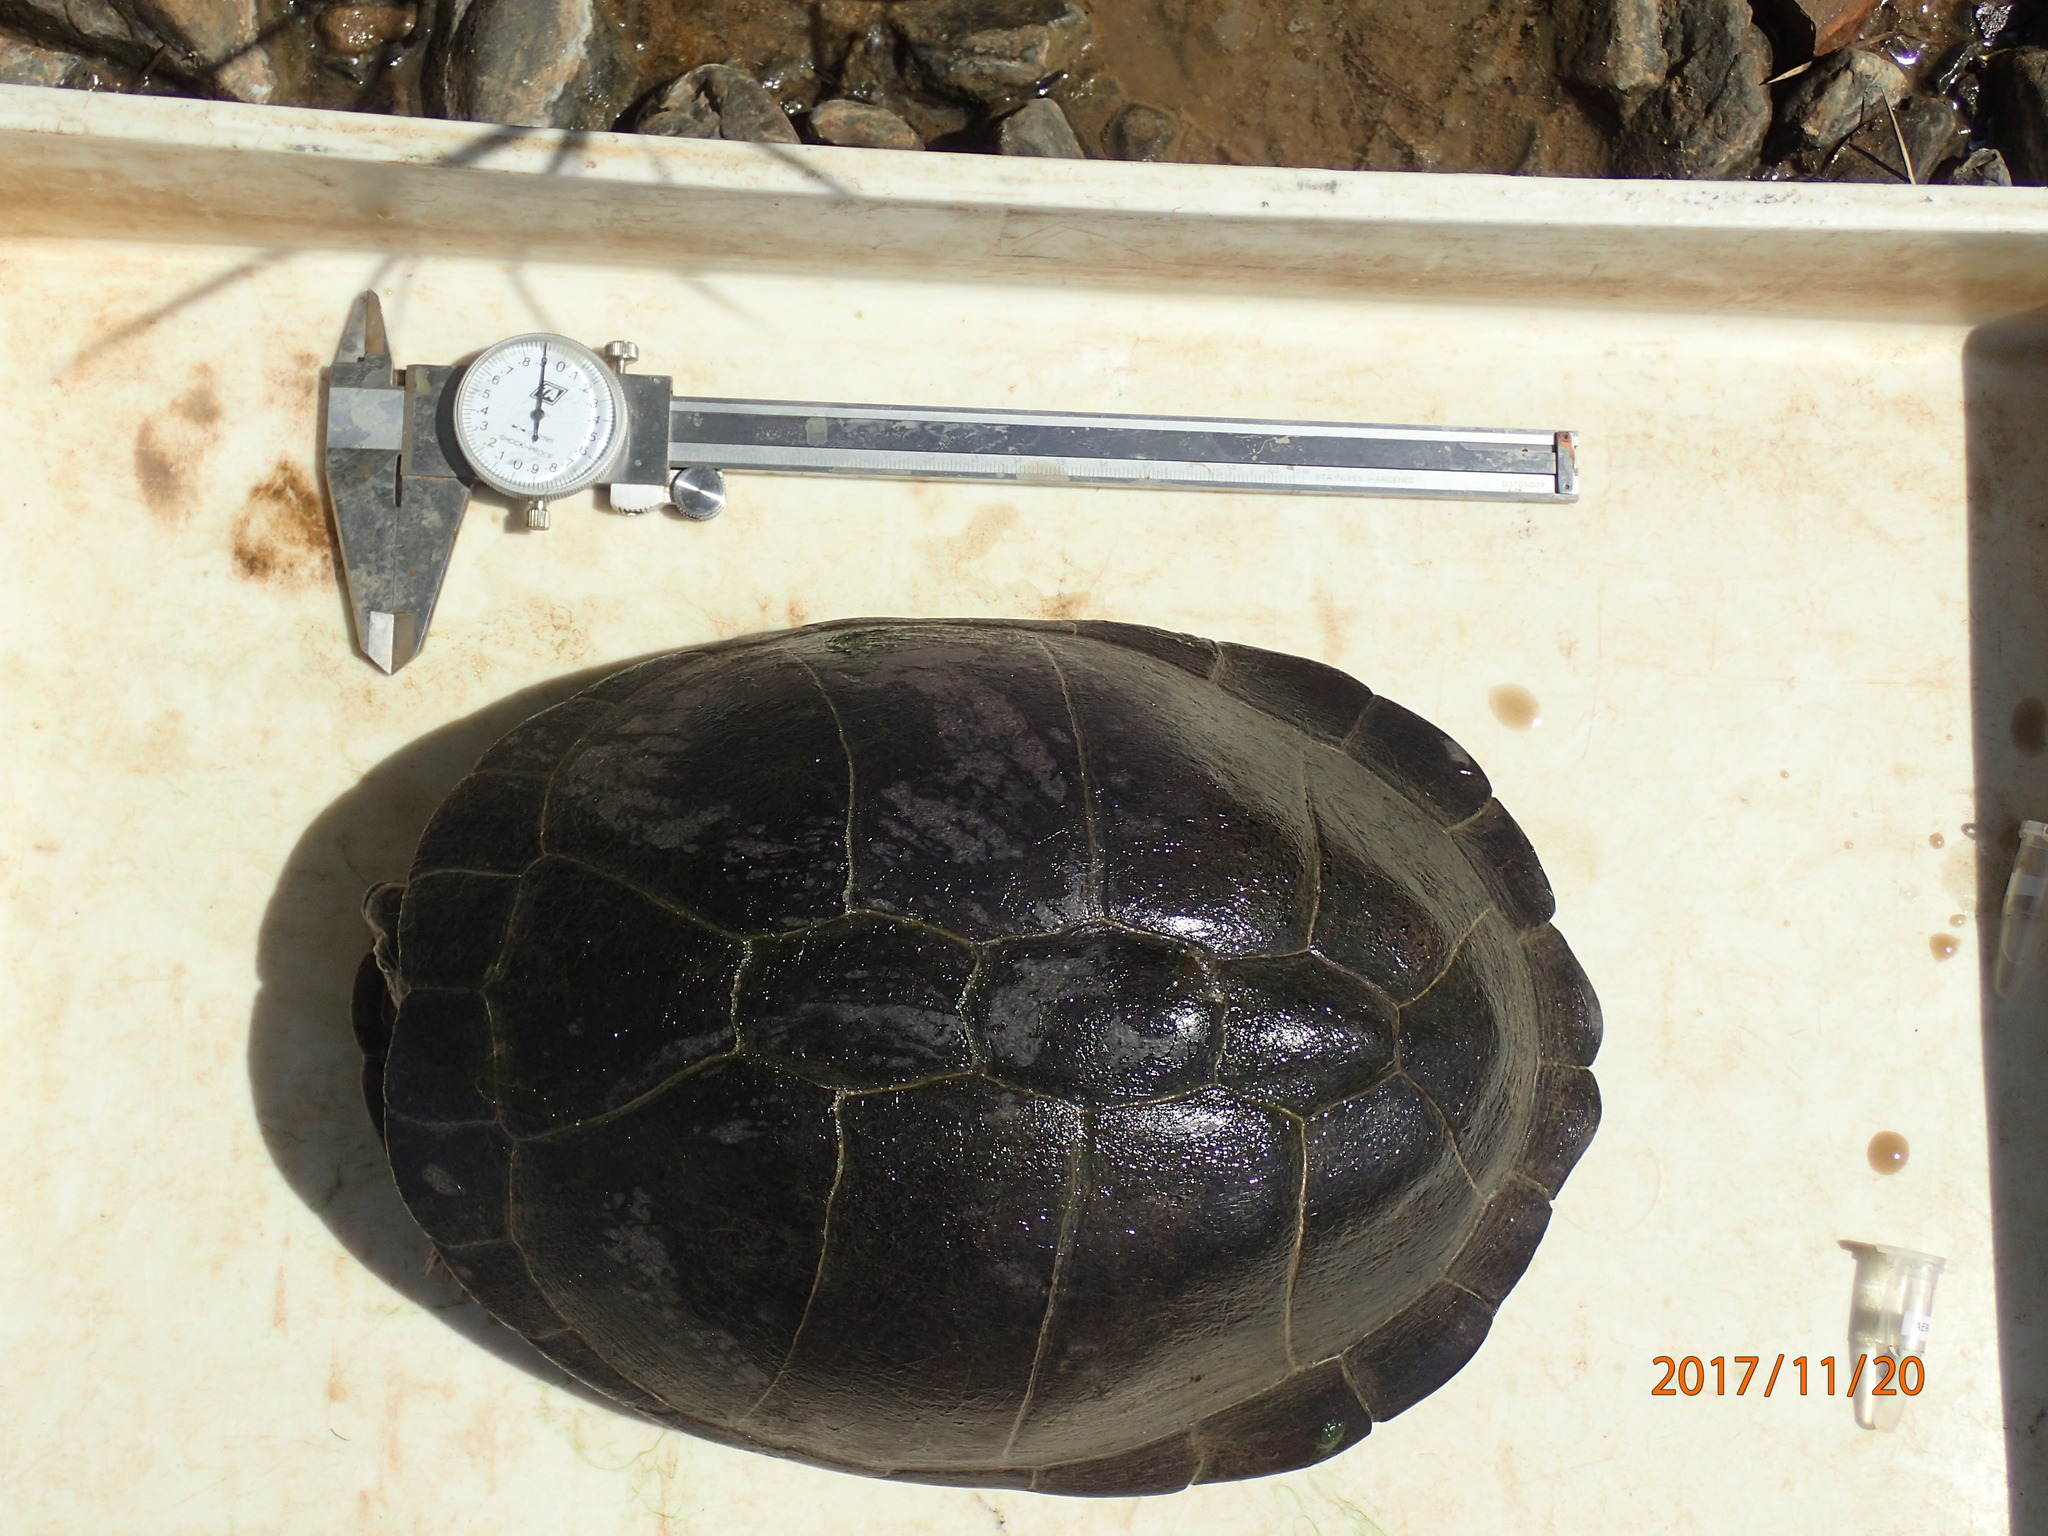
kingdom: Animalia
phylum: Chordata
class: Testudines
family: Pelomedusidae
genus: Pelusios
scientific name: Pelusios sinuatus
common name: Serrated hinged terrapin
